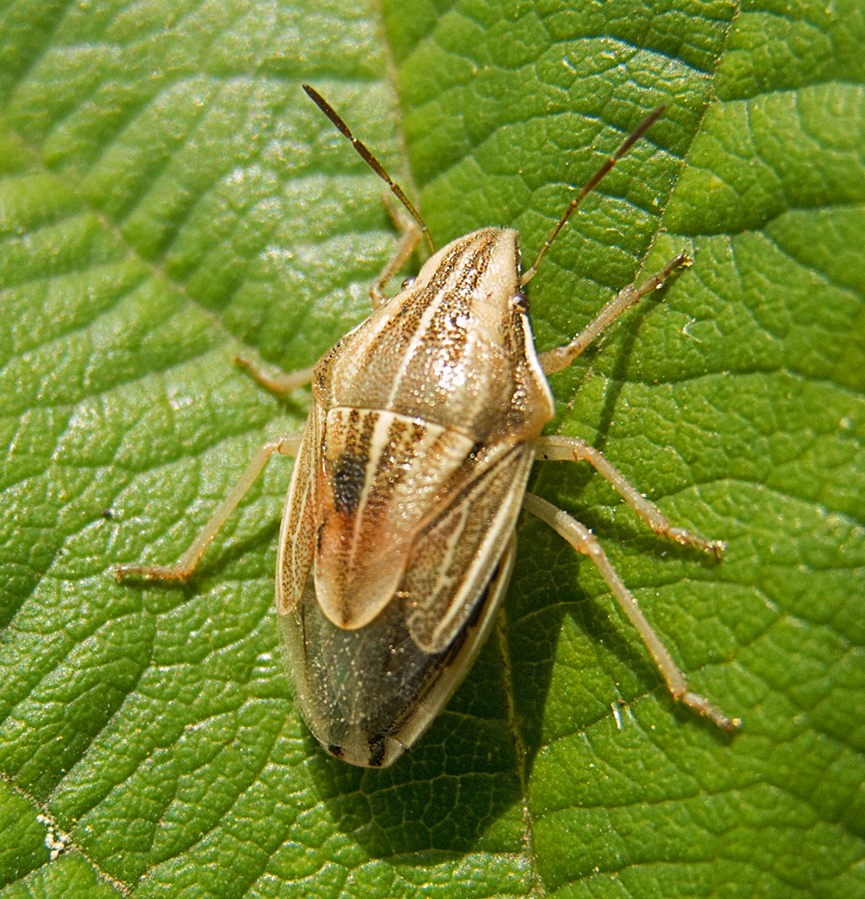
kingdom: Animalia
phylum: Arthropoda
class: Insecta
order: Hemiptera
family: Pentatomidae
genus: Aelia
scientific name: Aelia acuminata
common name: Bishop's mitre
